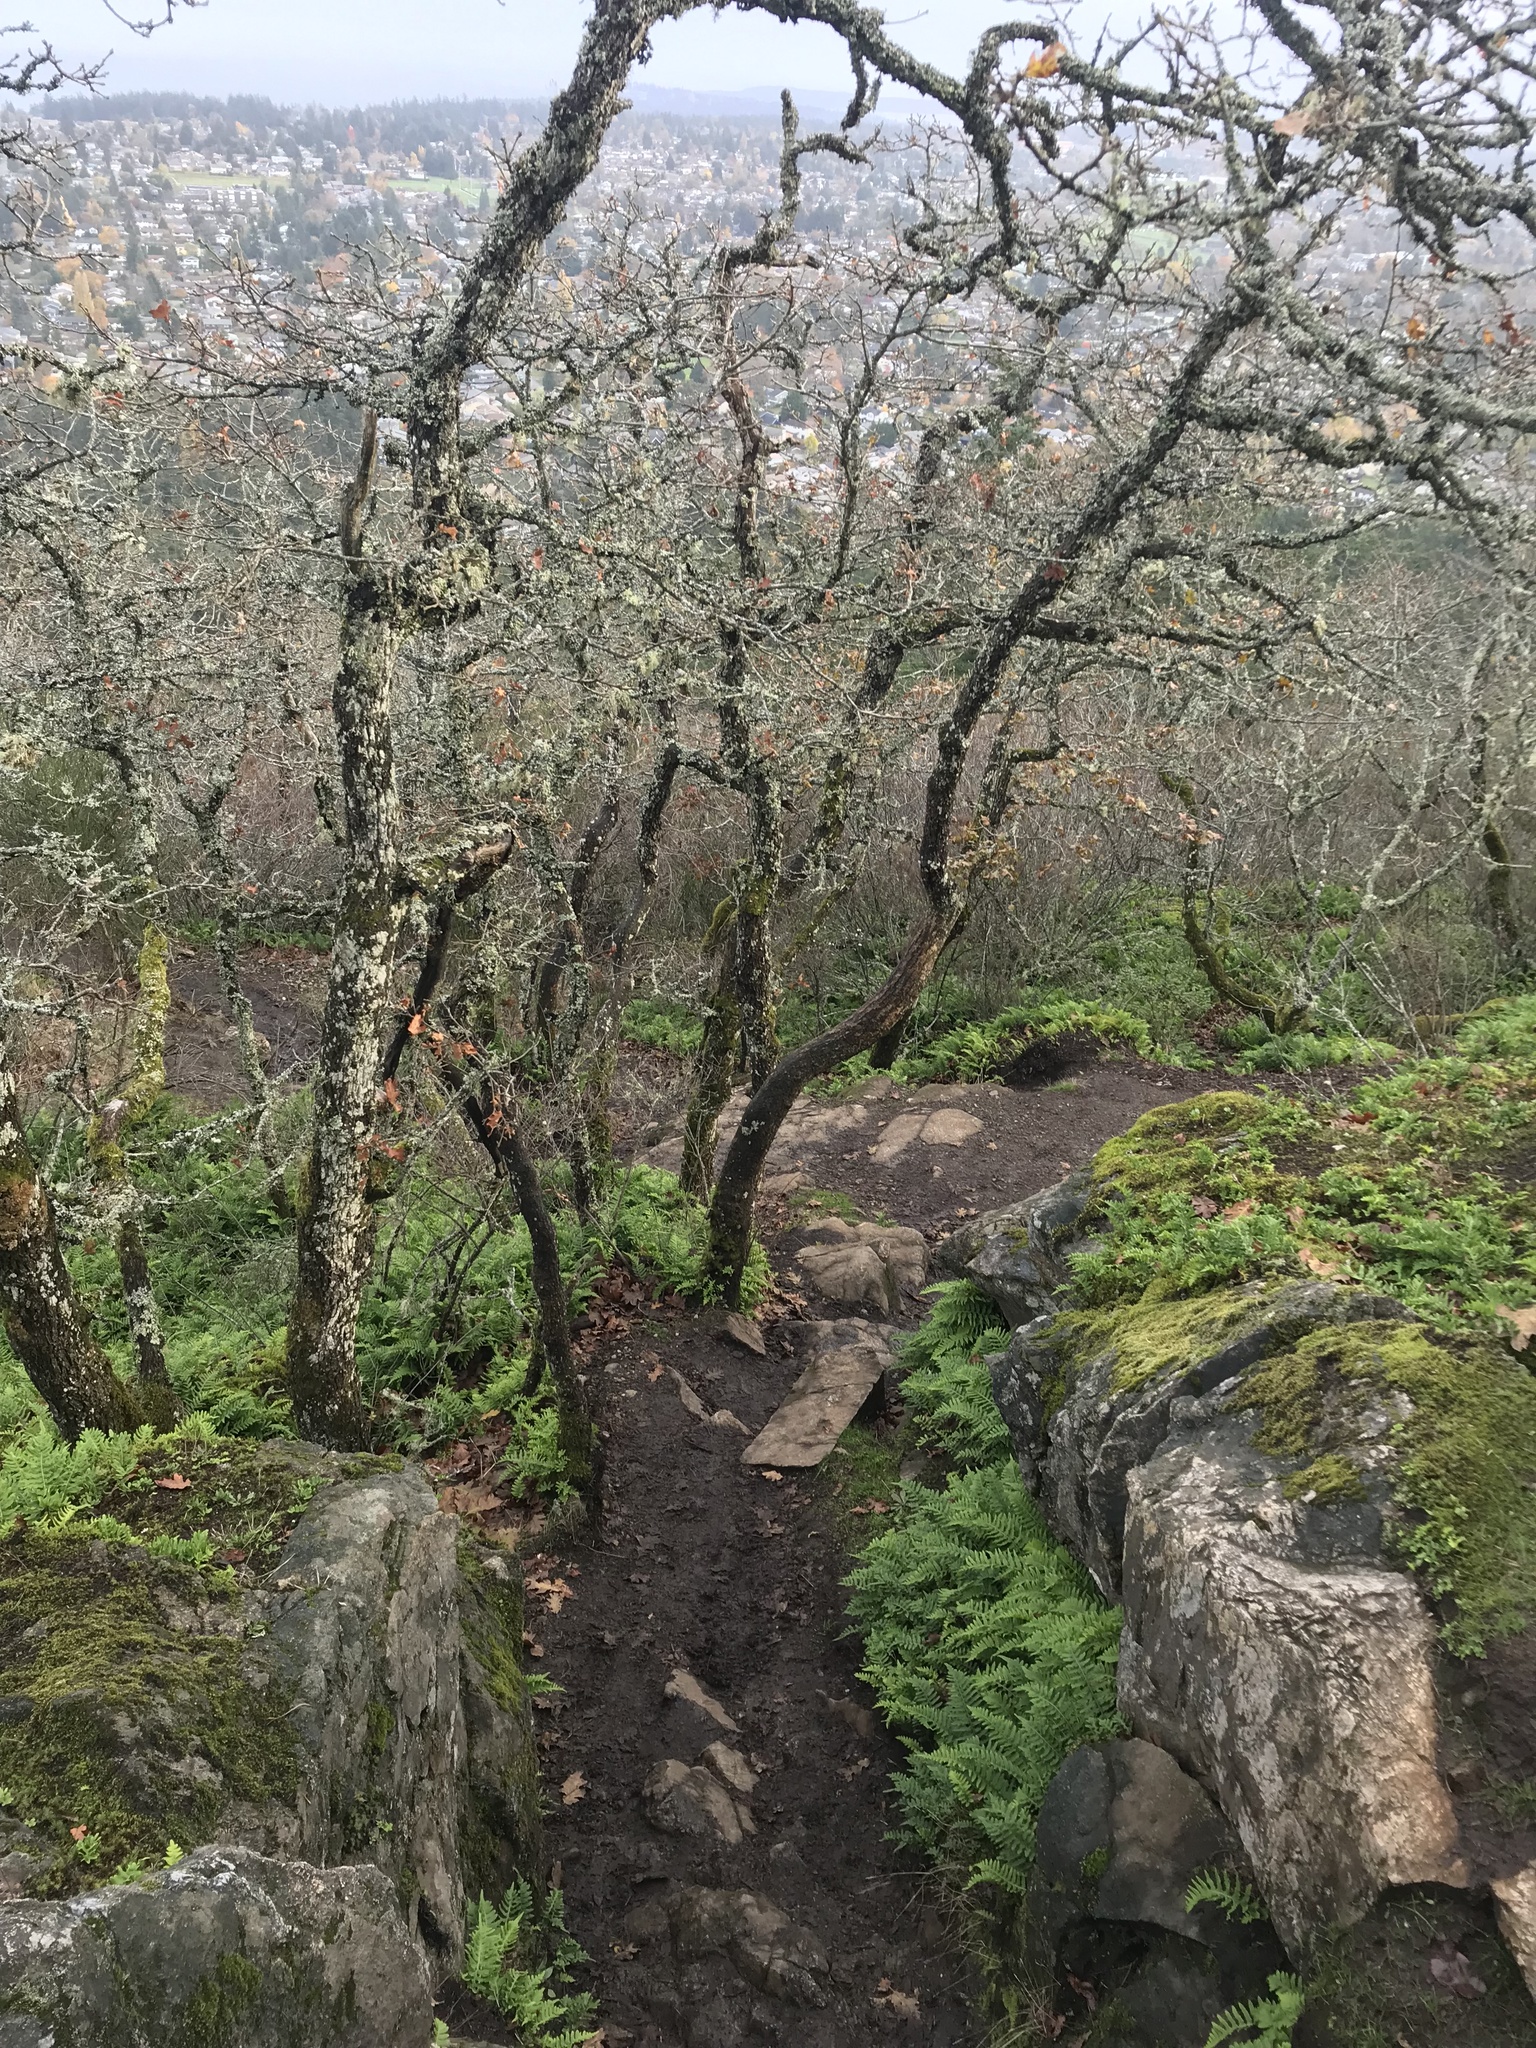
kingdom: Animalia
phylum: Chordata
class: Amphibia
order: Anura
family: Hylidae
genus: Pseudacris
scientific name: Pseudacris regilla
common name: Pacific chorus frog
